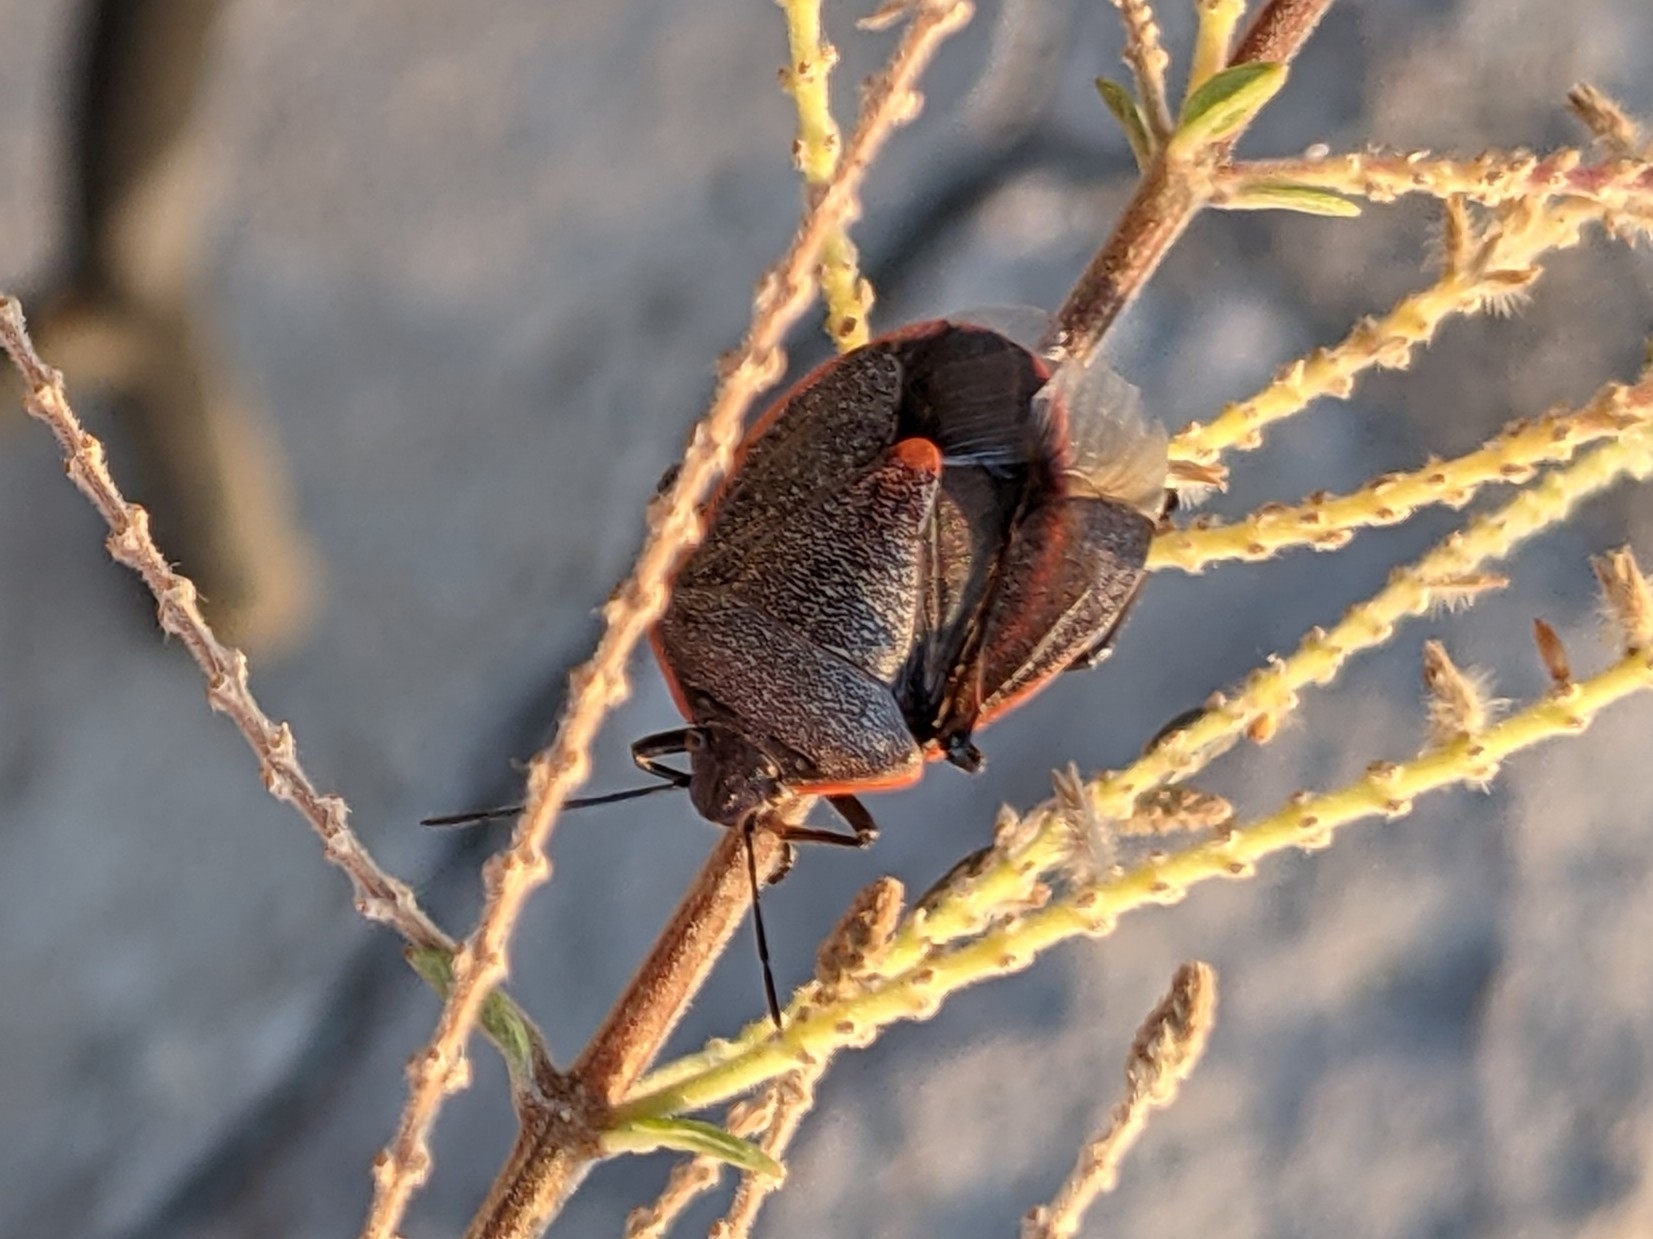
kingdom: Animalia
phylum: Arthropoda
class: Insecta
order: Hemiptera
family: Pentatomidae
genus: Chlorochroa
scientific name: Chlorochroa ligata
